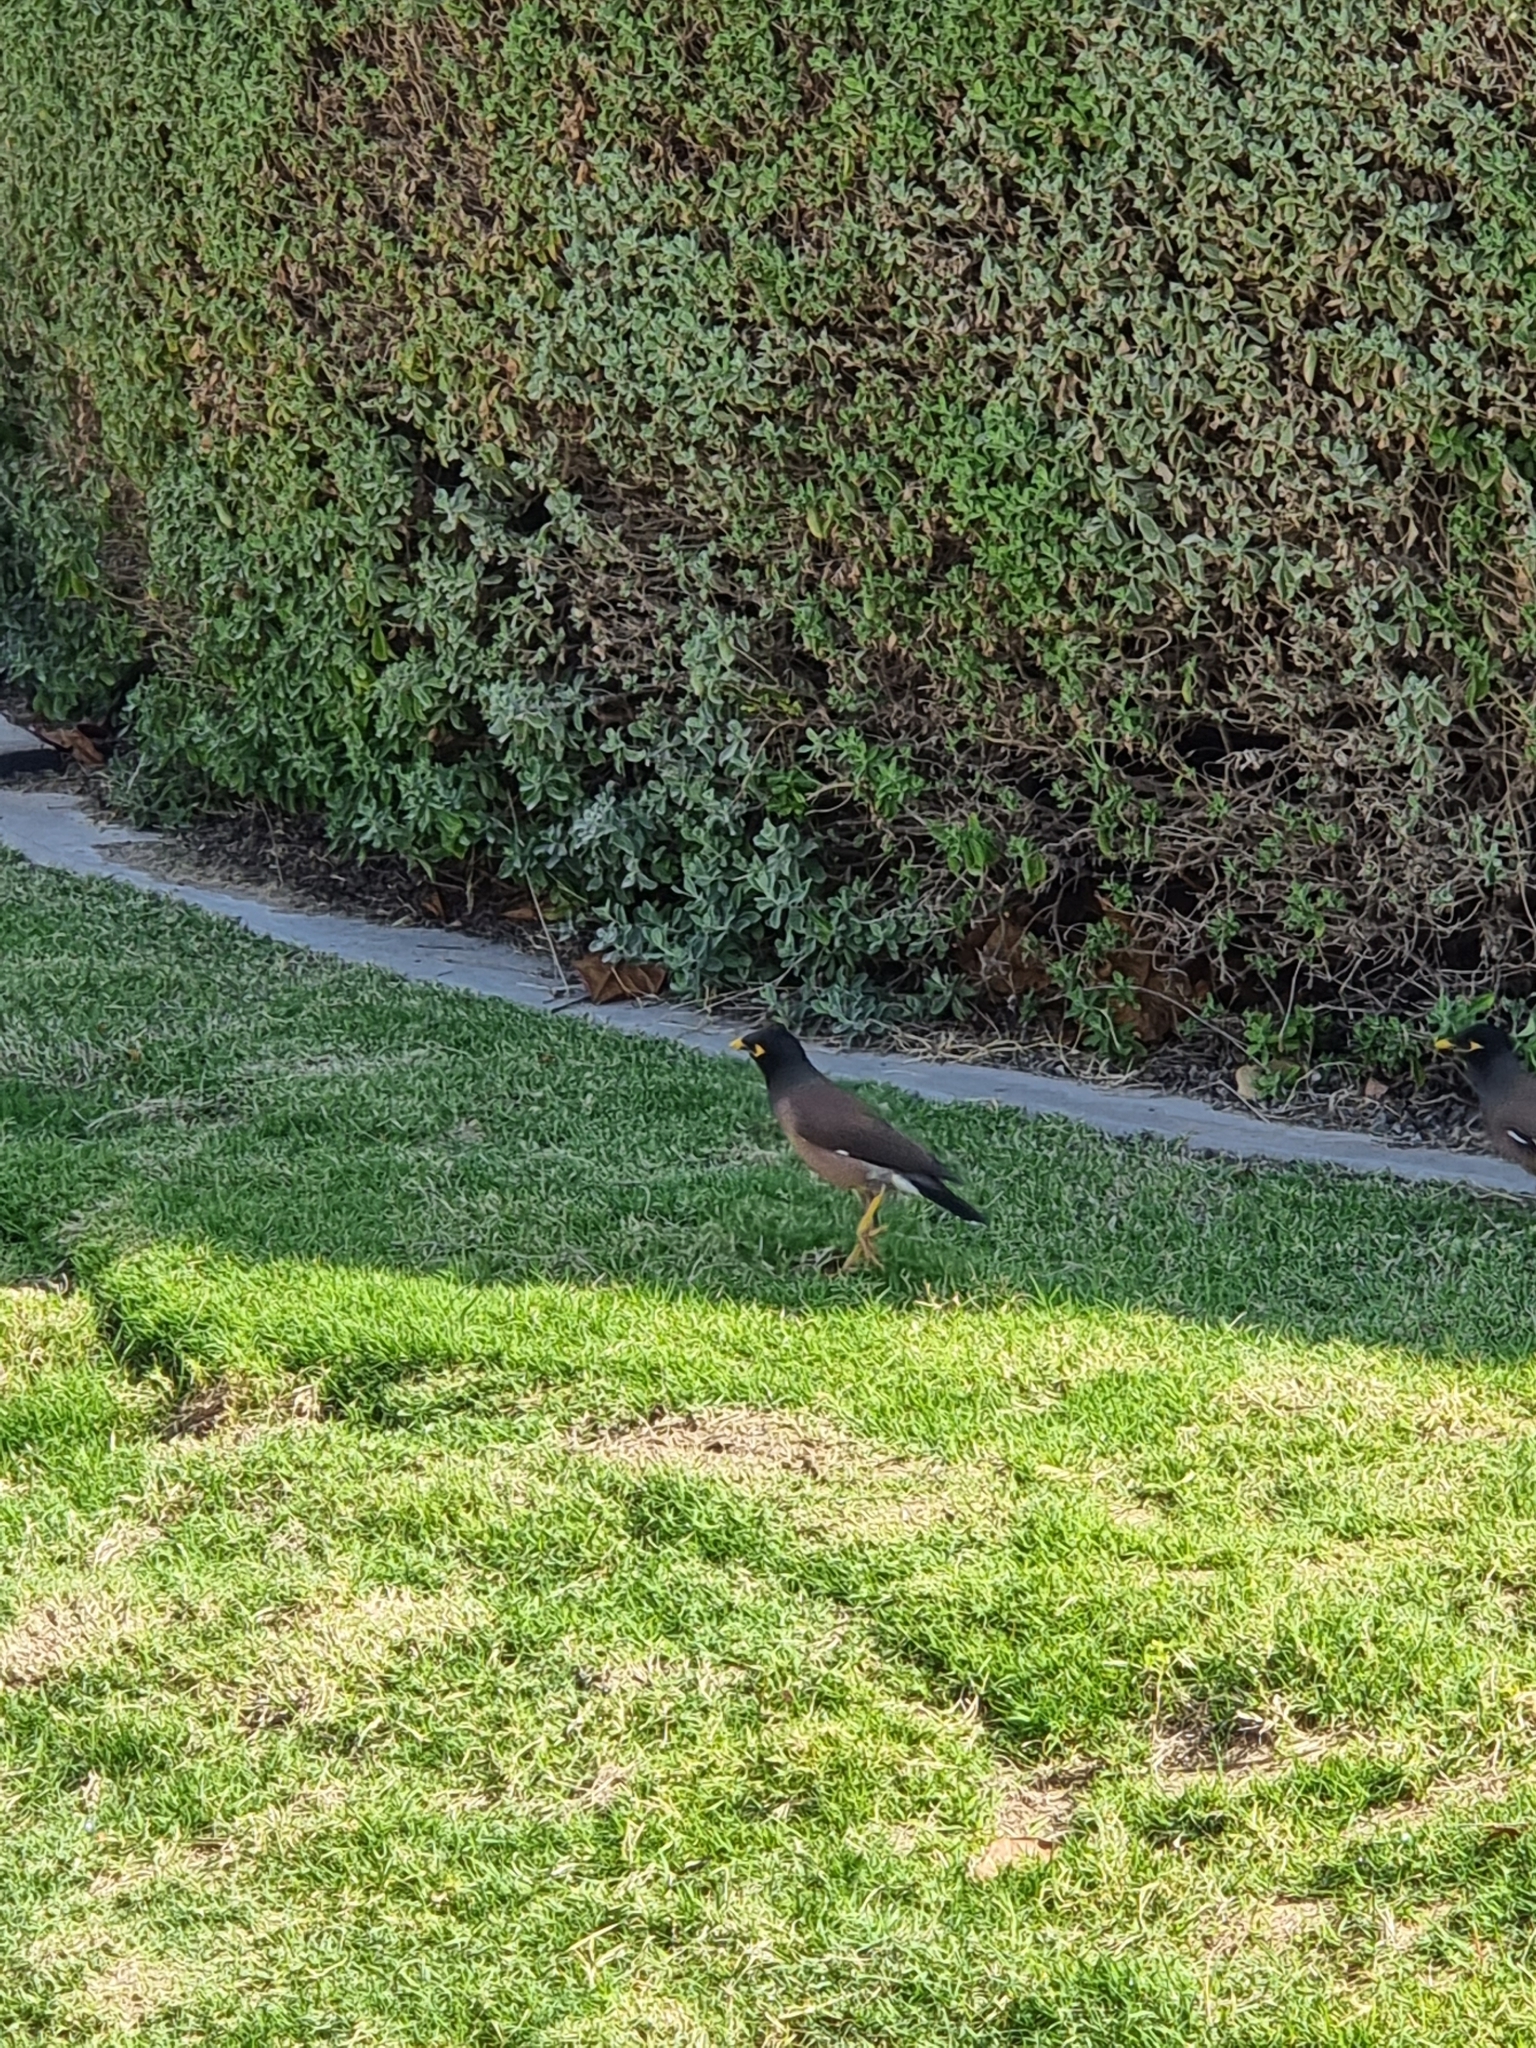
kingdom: Animalia
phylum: Chordata
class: Aves
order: Passeriformes
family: Sturnidae
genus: Acridotheres
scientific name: Acridotheres tristis
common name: Common myna
